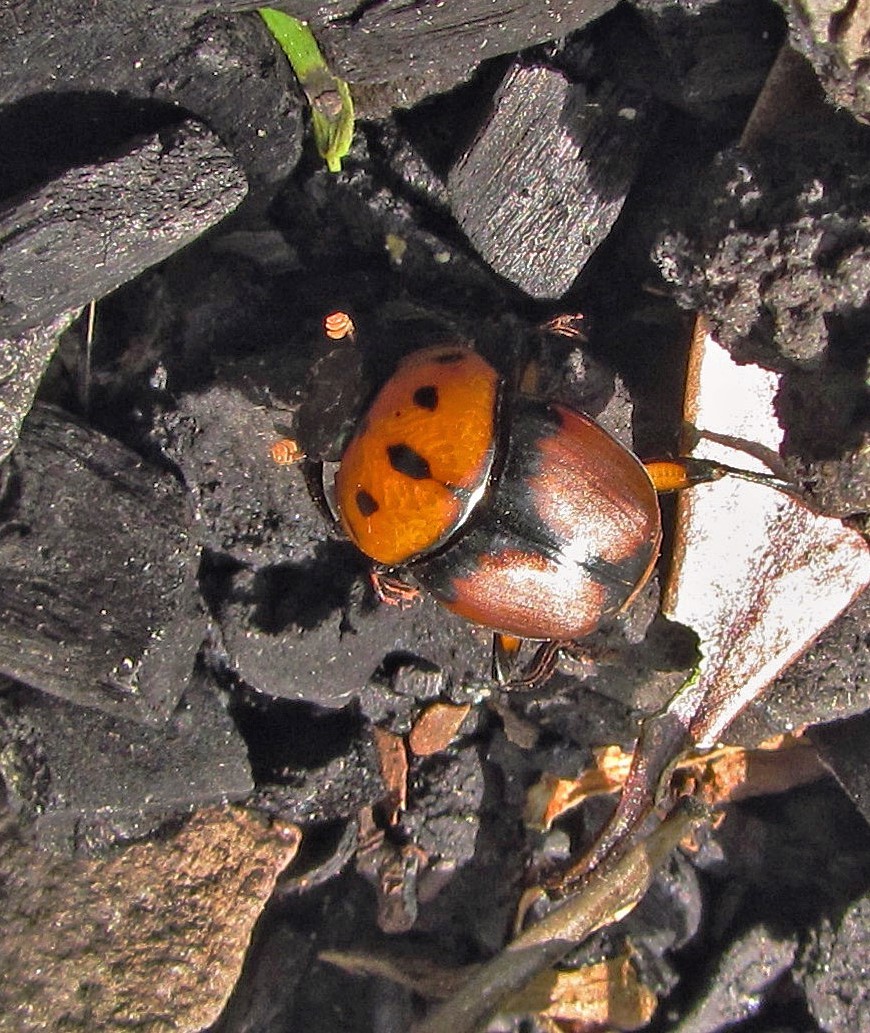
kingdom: Animalia
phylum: Arthropoda
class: Insecta
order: Coleoptera
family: Scarabaeidae
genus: Canthon
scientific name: Canthon quinquemaculatus
